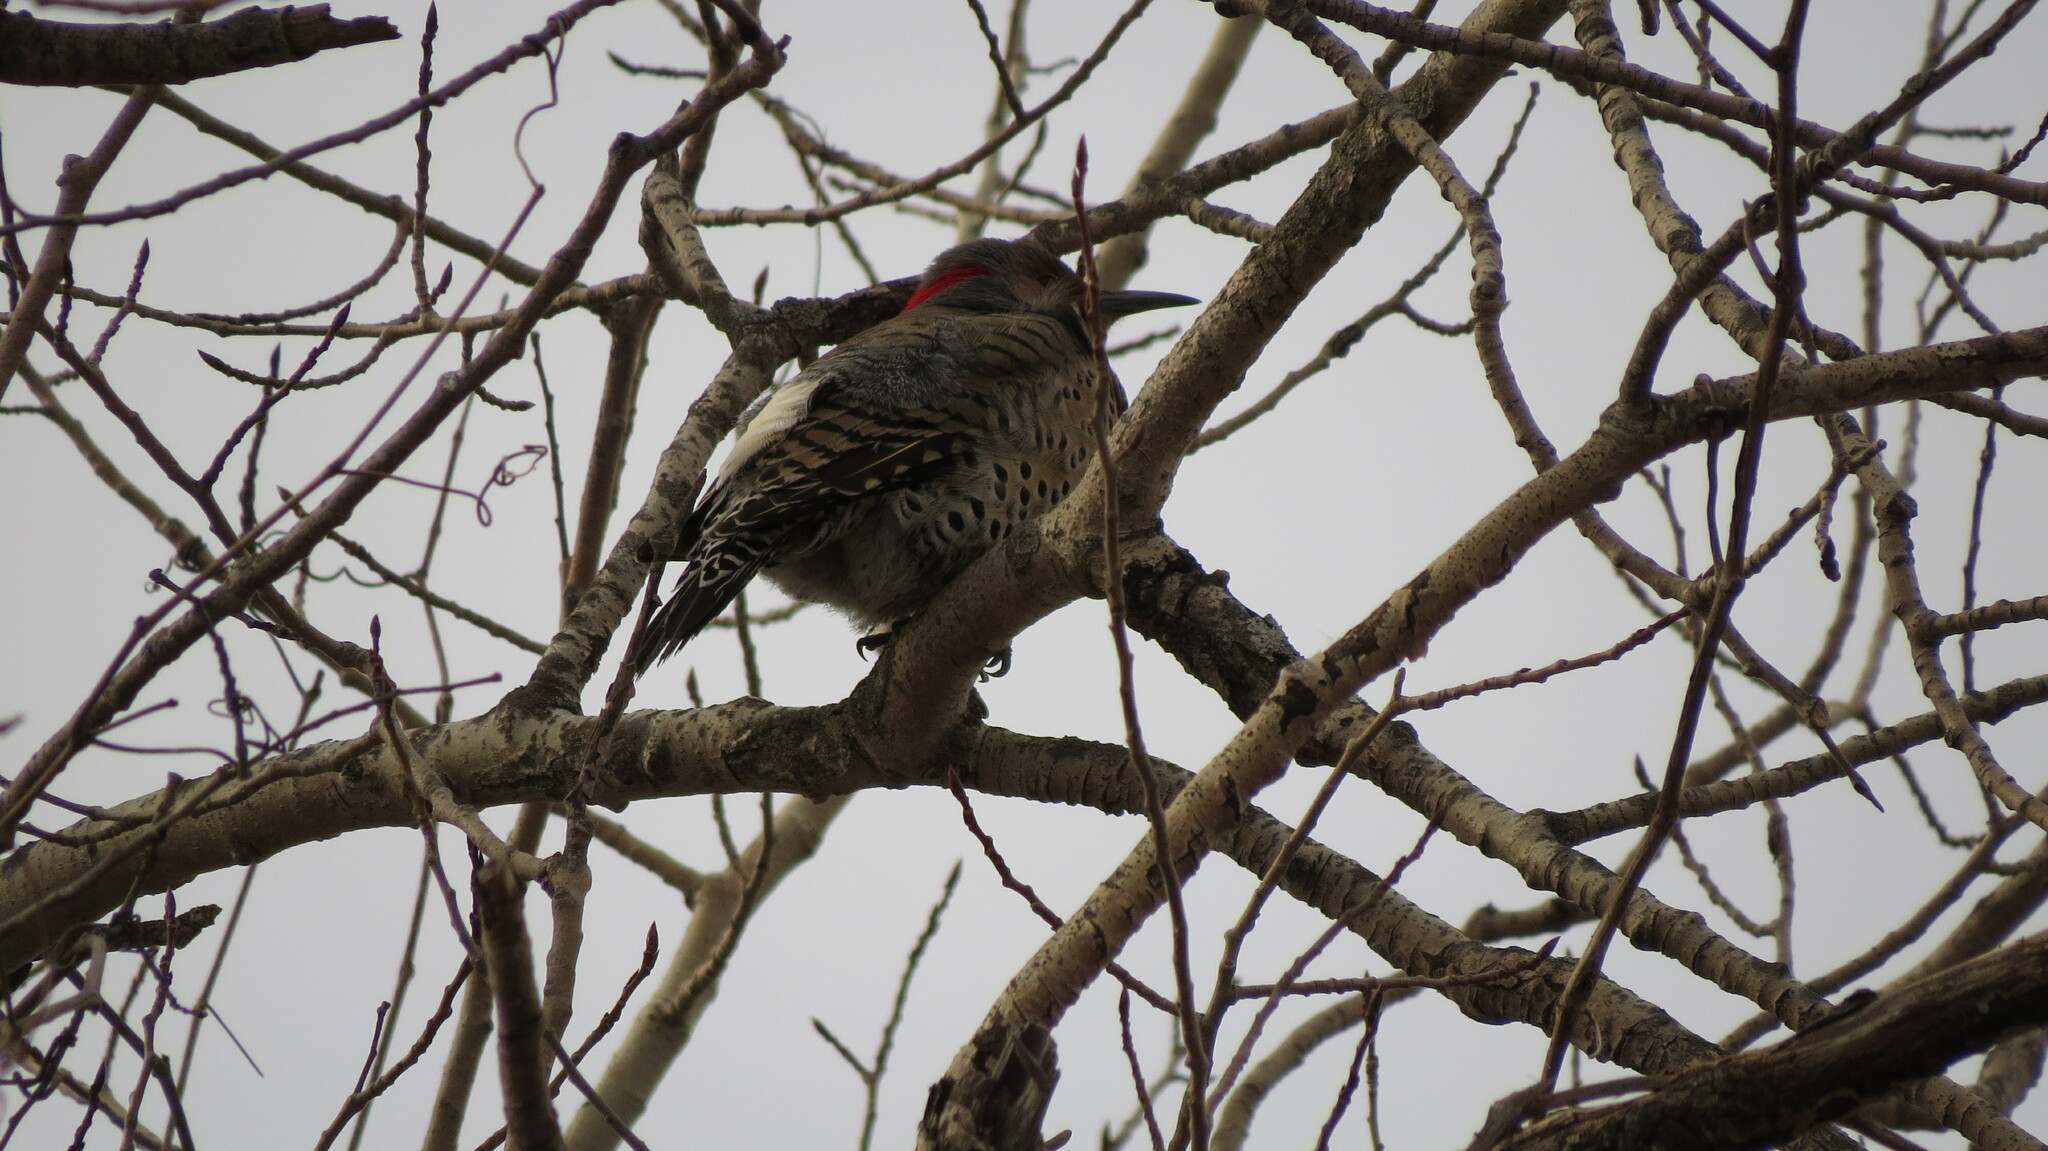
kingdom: Animalia
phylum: Chordata
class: Aves
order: Piciformes
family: Picidae
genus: Colaptes
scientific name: Colaptes auratus
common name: Northern flicker
